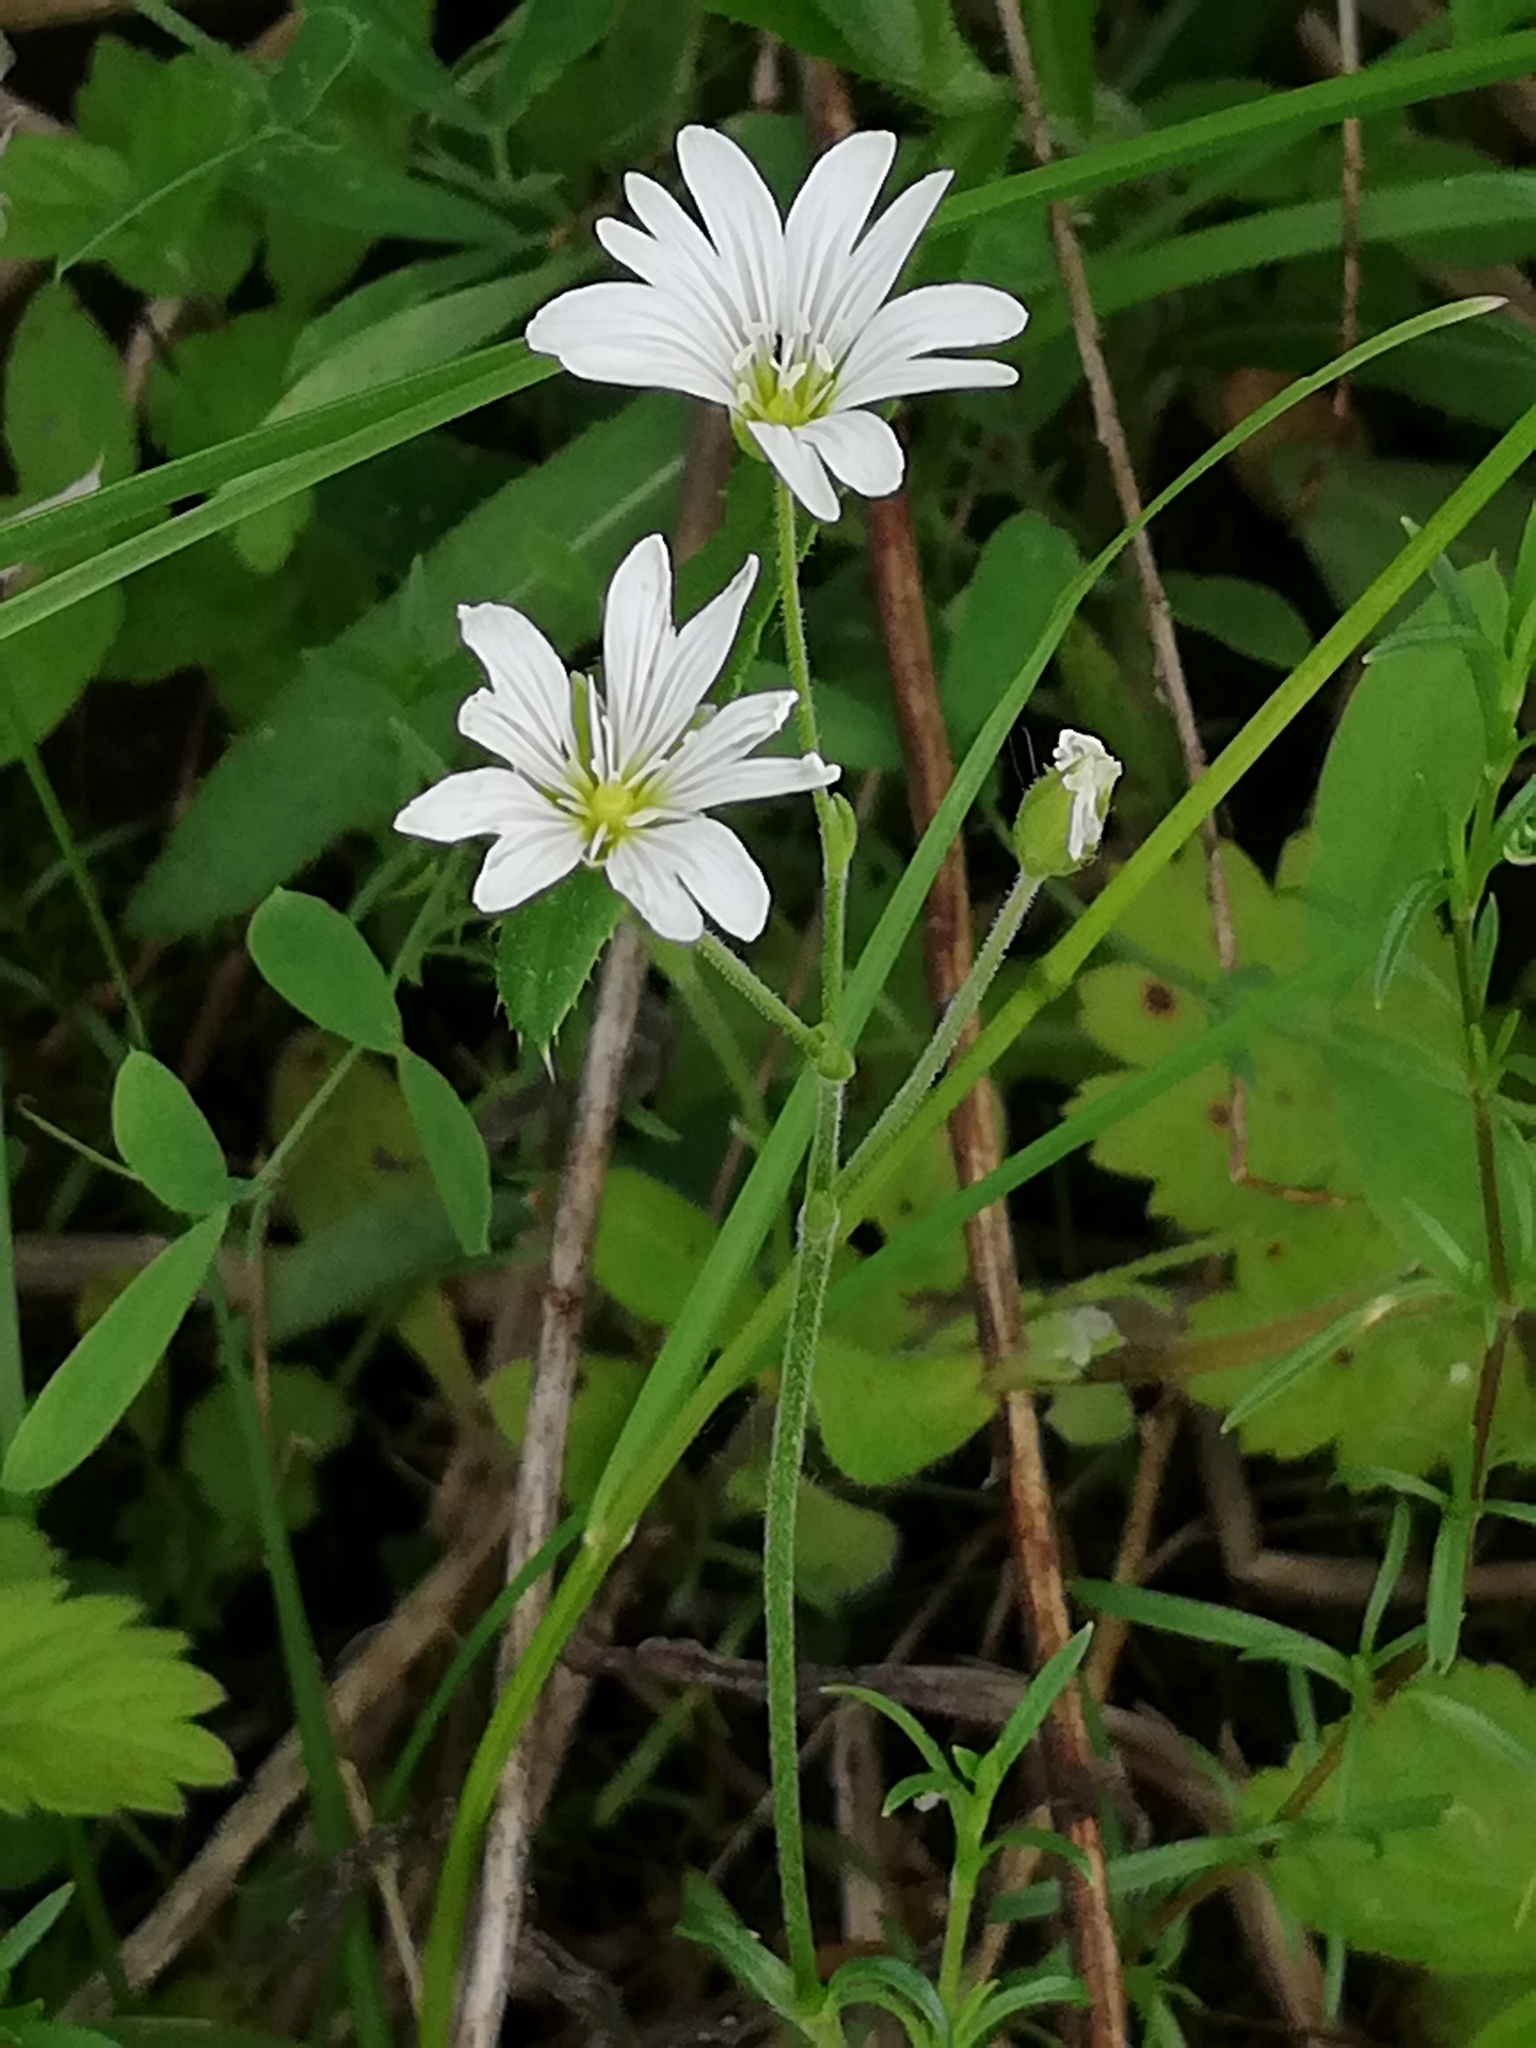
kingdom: Plantae
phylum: Tracheophyta
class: Magnoliopsida
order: Caryophyllales
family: Caryophyllaceae
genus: Cerastium
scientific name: Cerastium arvense
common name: Field mouse-ear
